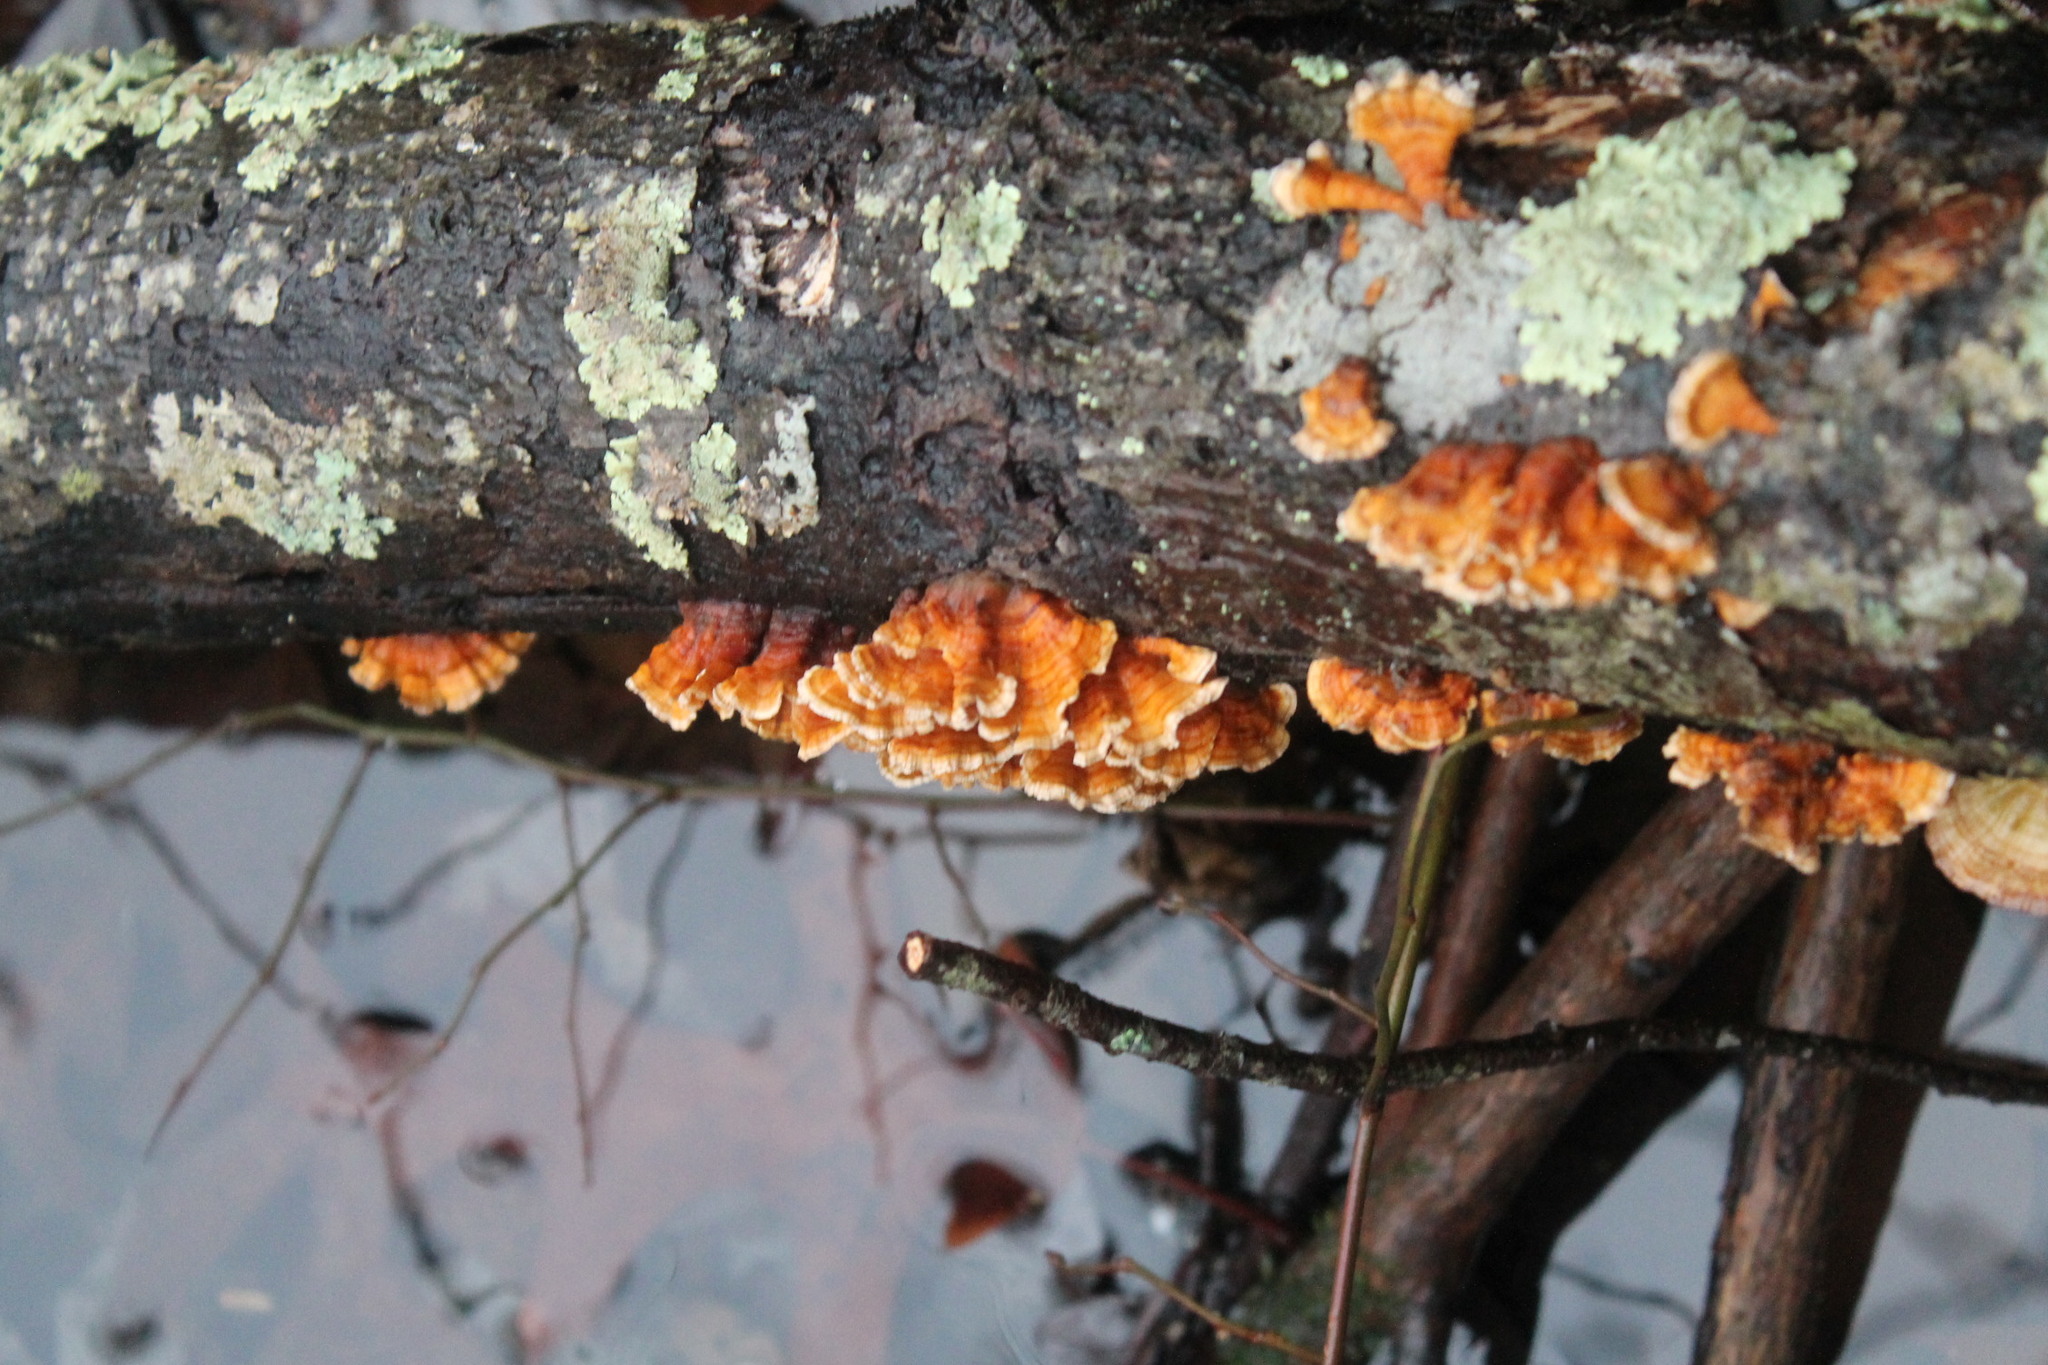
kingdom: Fungi
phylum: Basidiomycota
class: Agaricomycetes
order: Russulales
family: Stereaceae
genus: Stereum
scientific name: Stereum complicatum
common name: Crowded parchment
